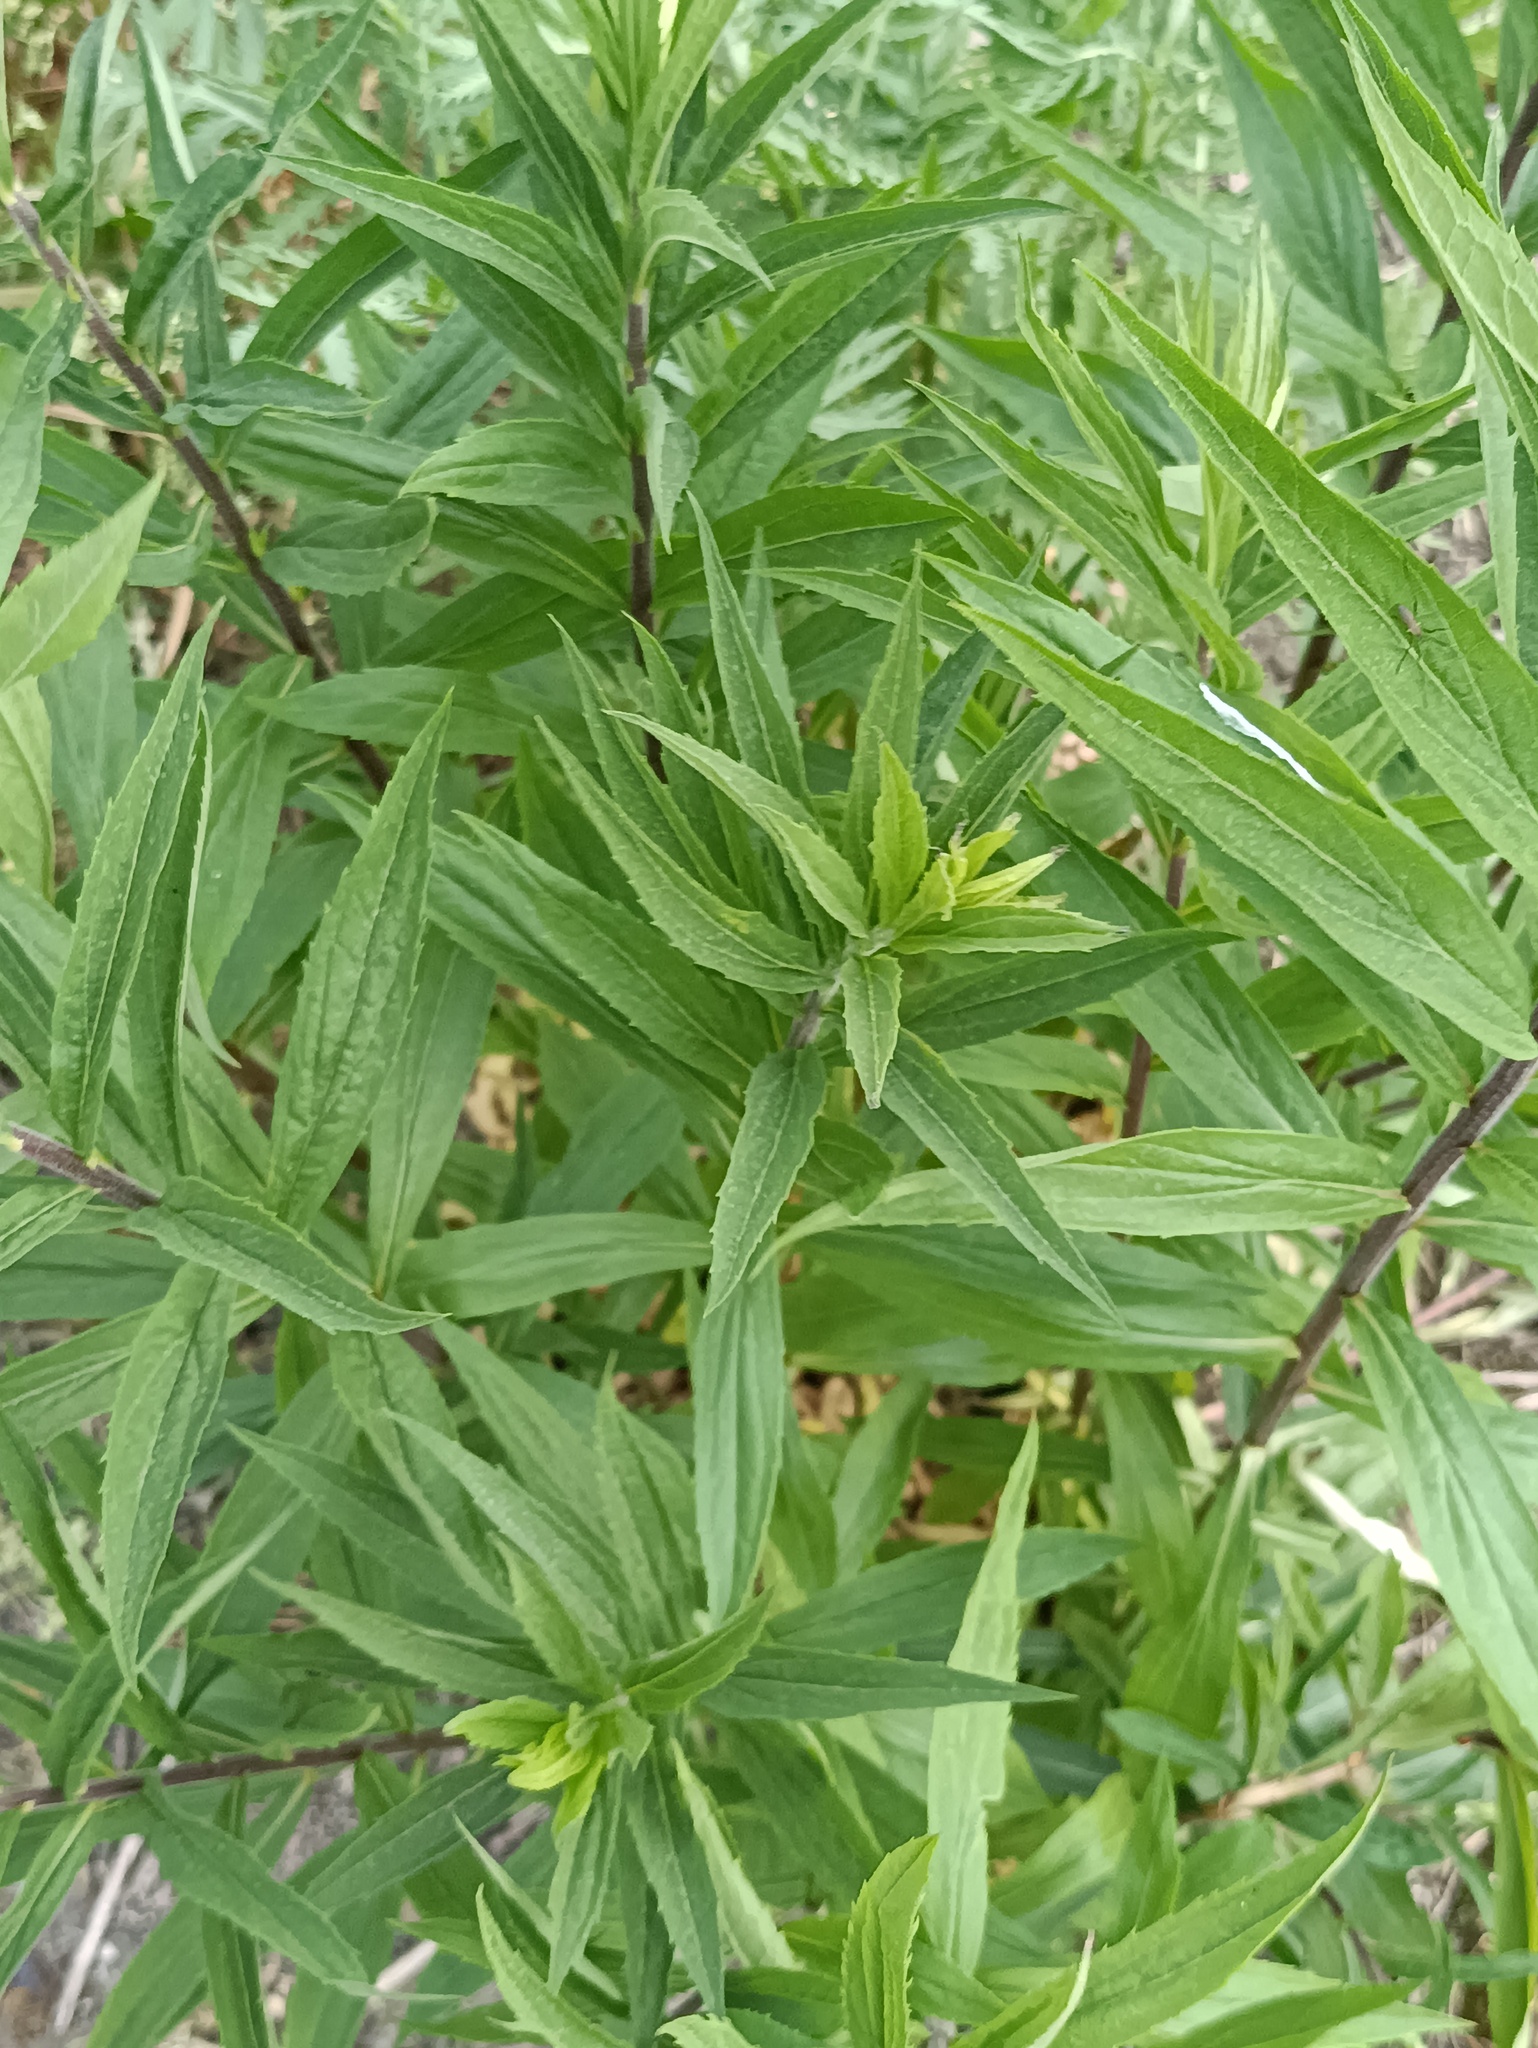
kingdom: Plantae
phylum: Tracheophyta
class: Magnoliopsida
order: Asterales
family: Asteraceae
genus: Solidago
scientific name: Solidago canadensis
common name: Canada goldenrod
